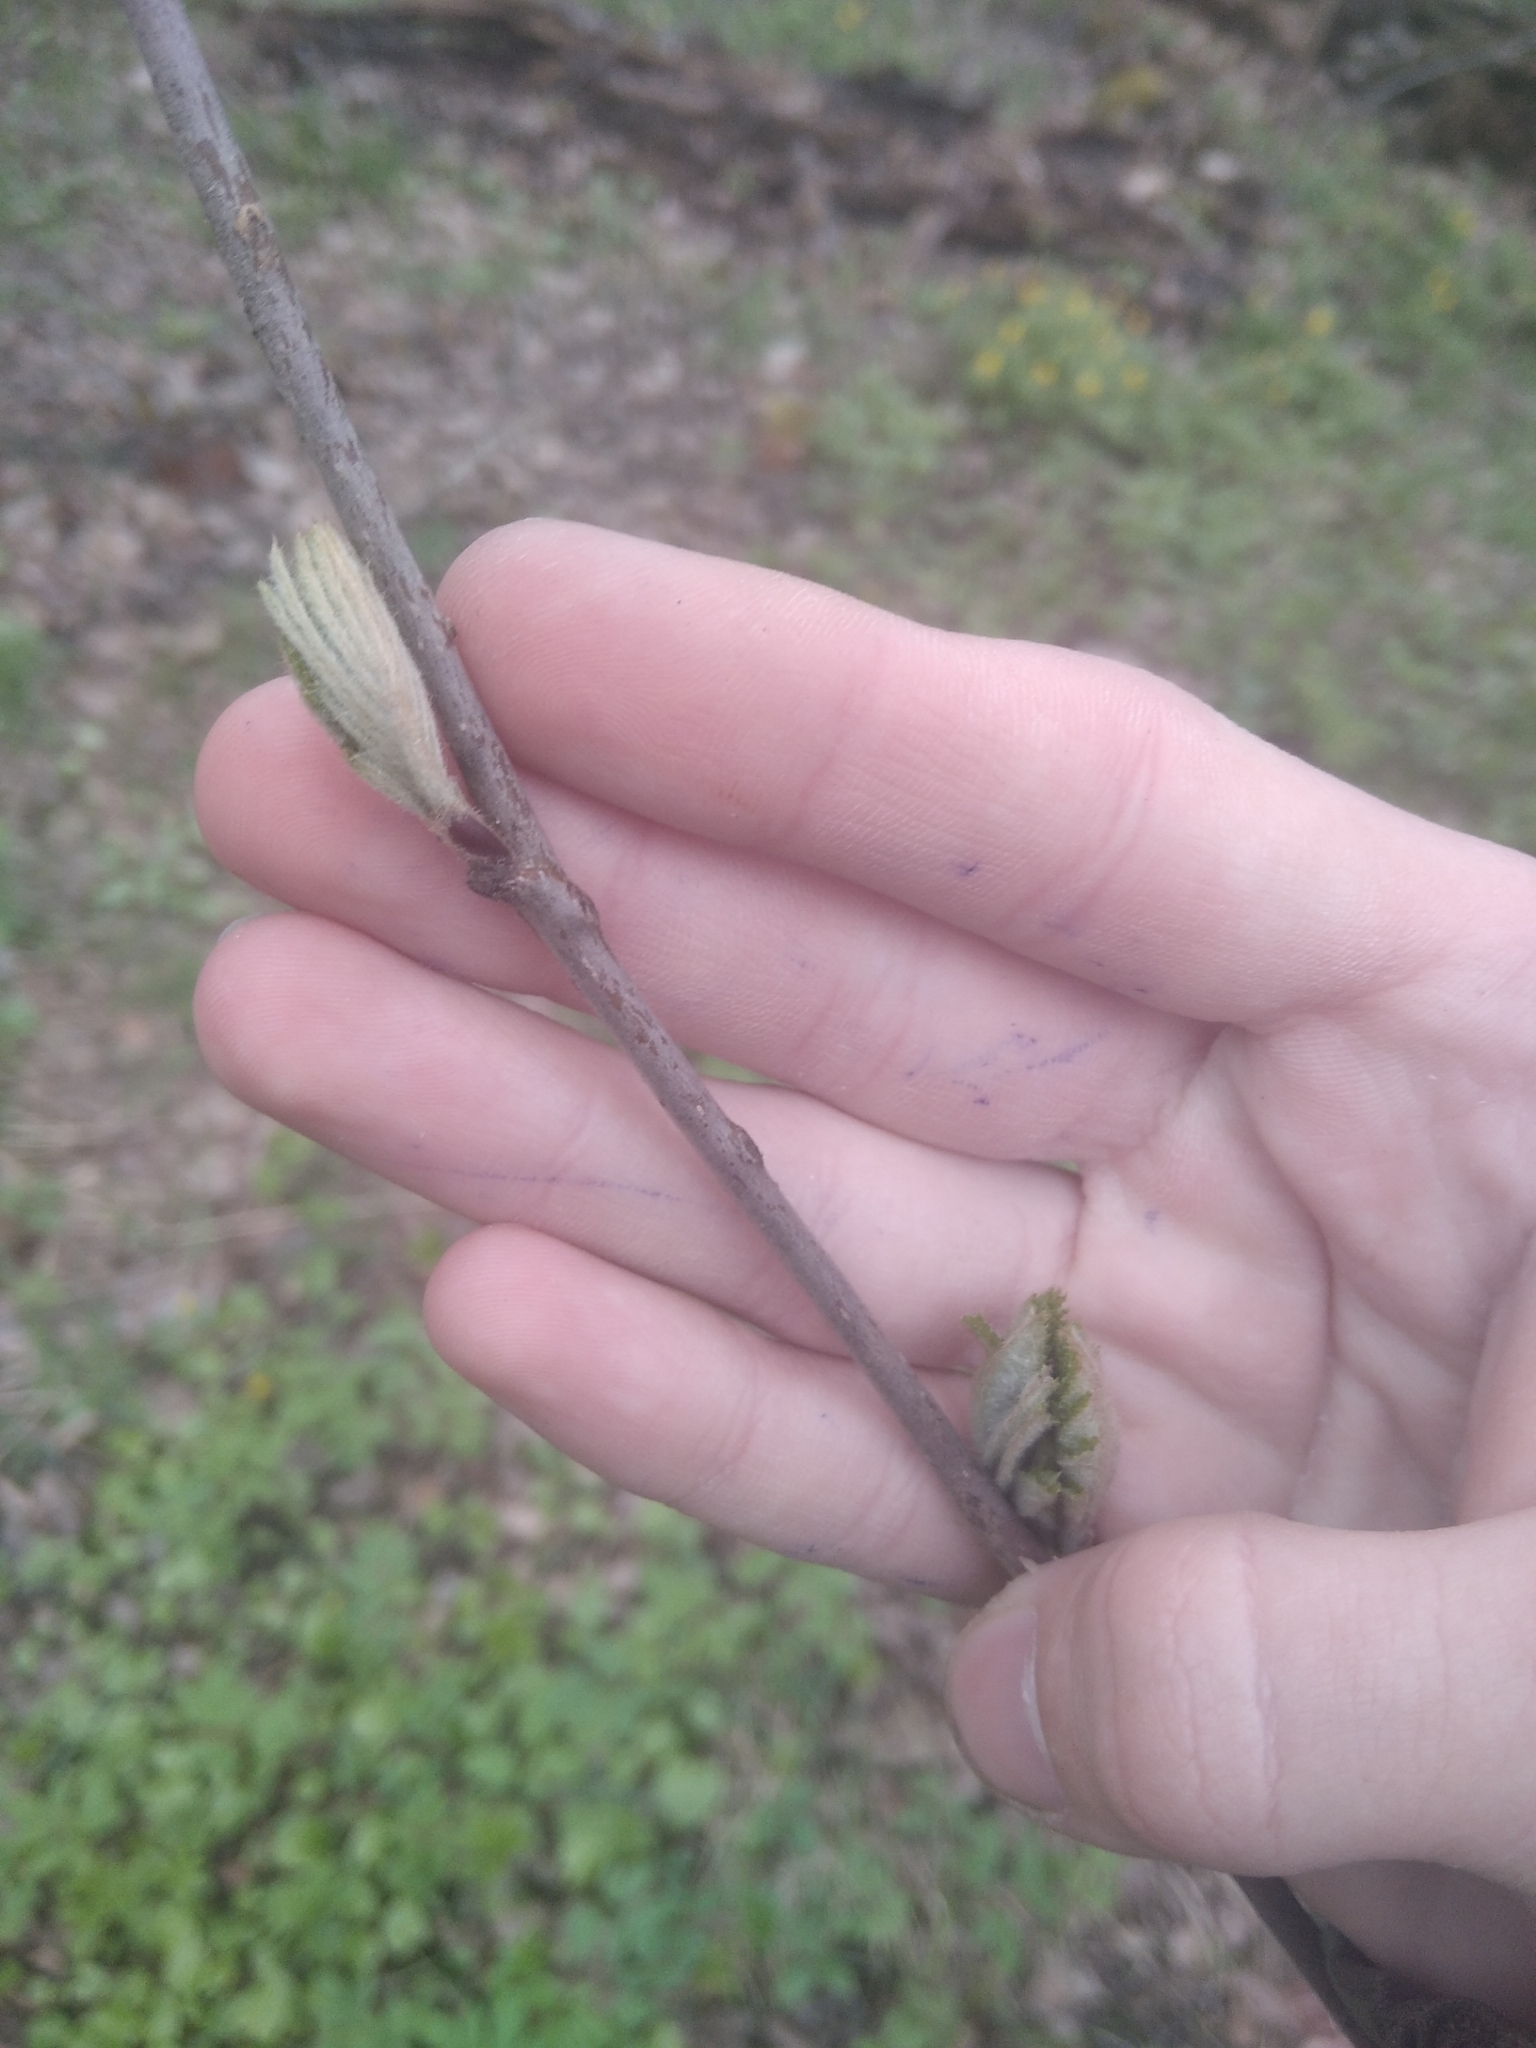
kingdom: Plantae
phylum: Tracheophyta
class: Magnoliopsida
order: Rosales
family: Rosaceae
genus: Sorbus
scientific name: Sorbus aucuparia
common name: Rowan
